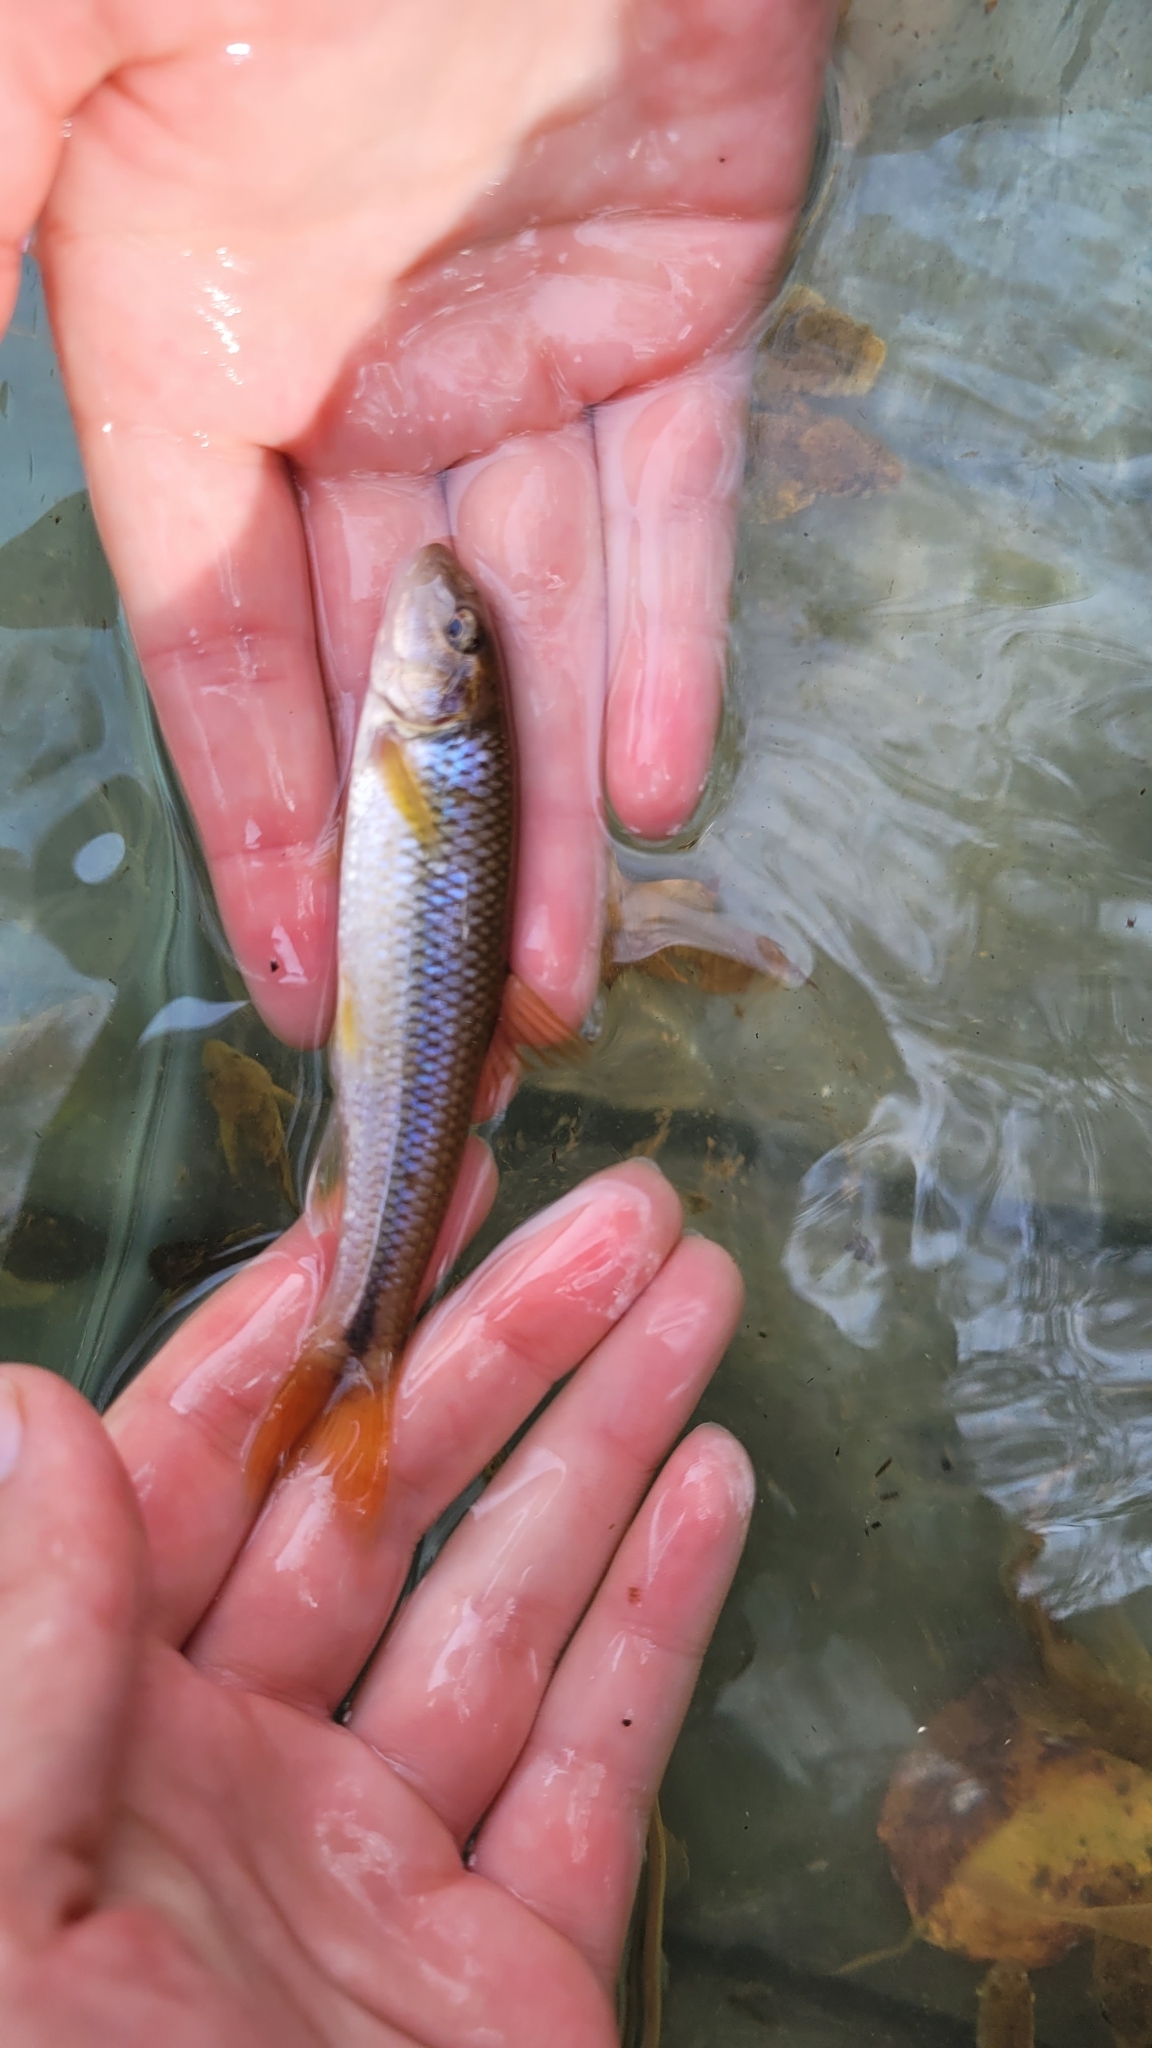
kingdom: Animalia
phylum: Chordata
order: Cypriniformes
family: Cyprinidae
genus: Nocomis
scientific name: Nocomis micropogon
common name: River chub
